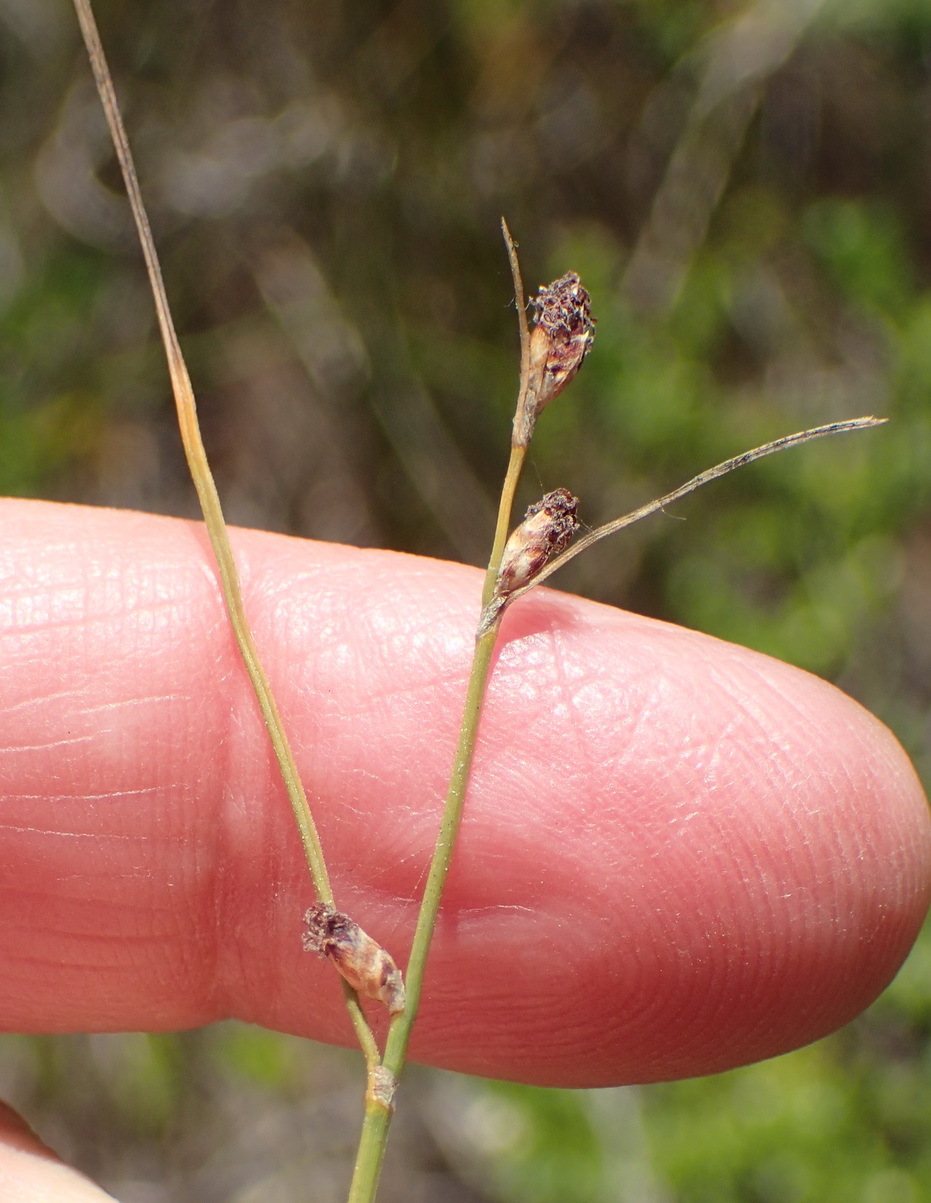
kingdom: Plantae
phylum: Tracheophyta
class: Liliopsida
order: Poales
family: Cyperaceae
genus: Ficinia
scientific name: Ficinia secunda
